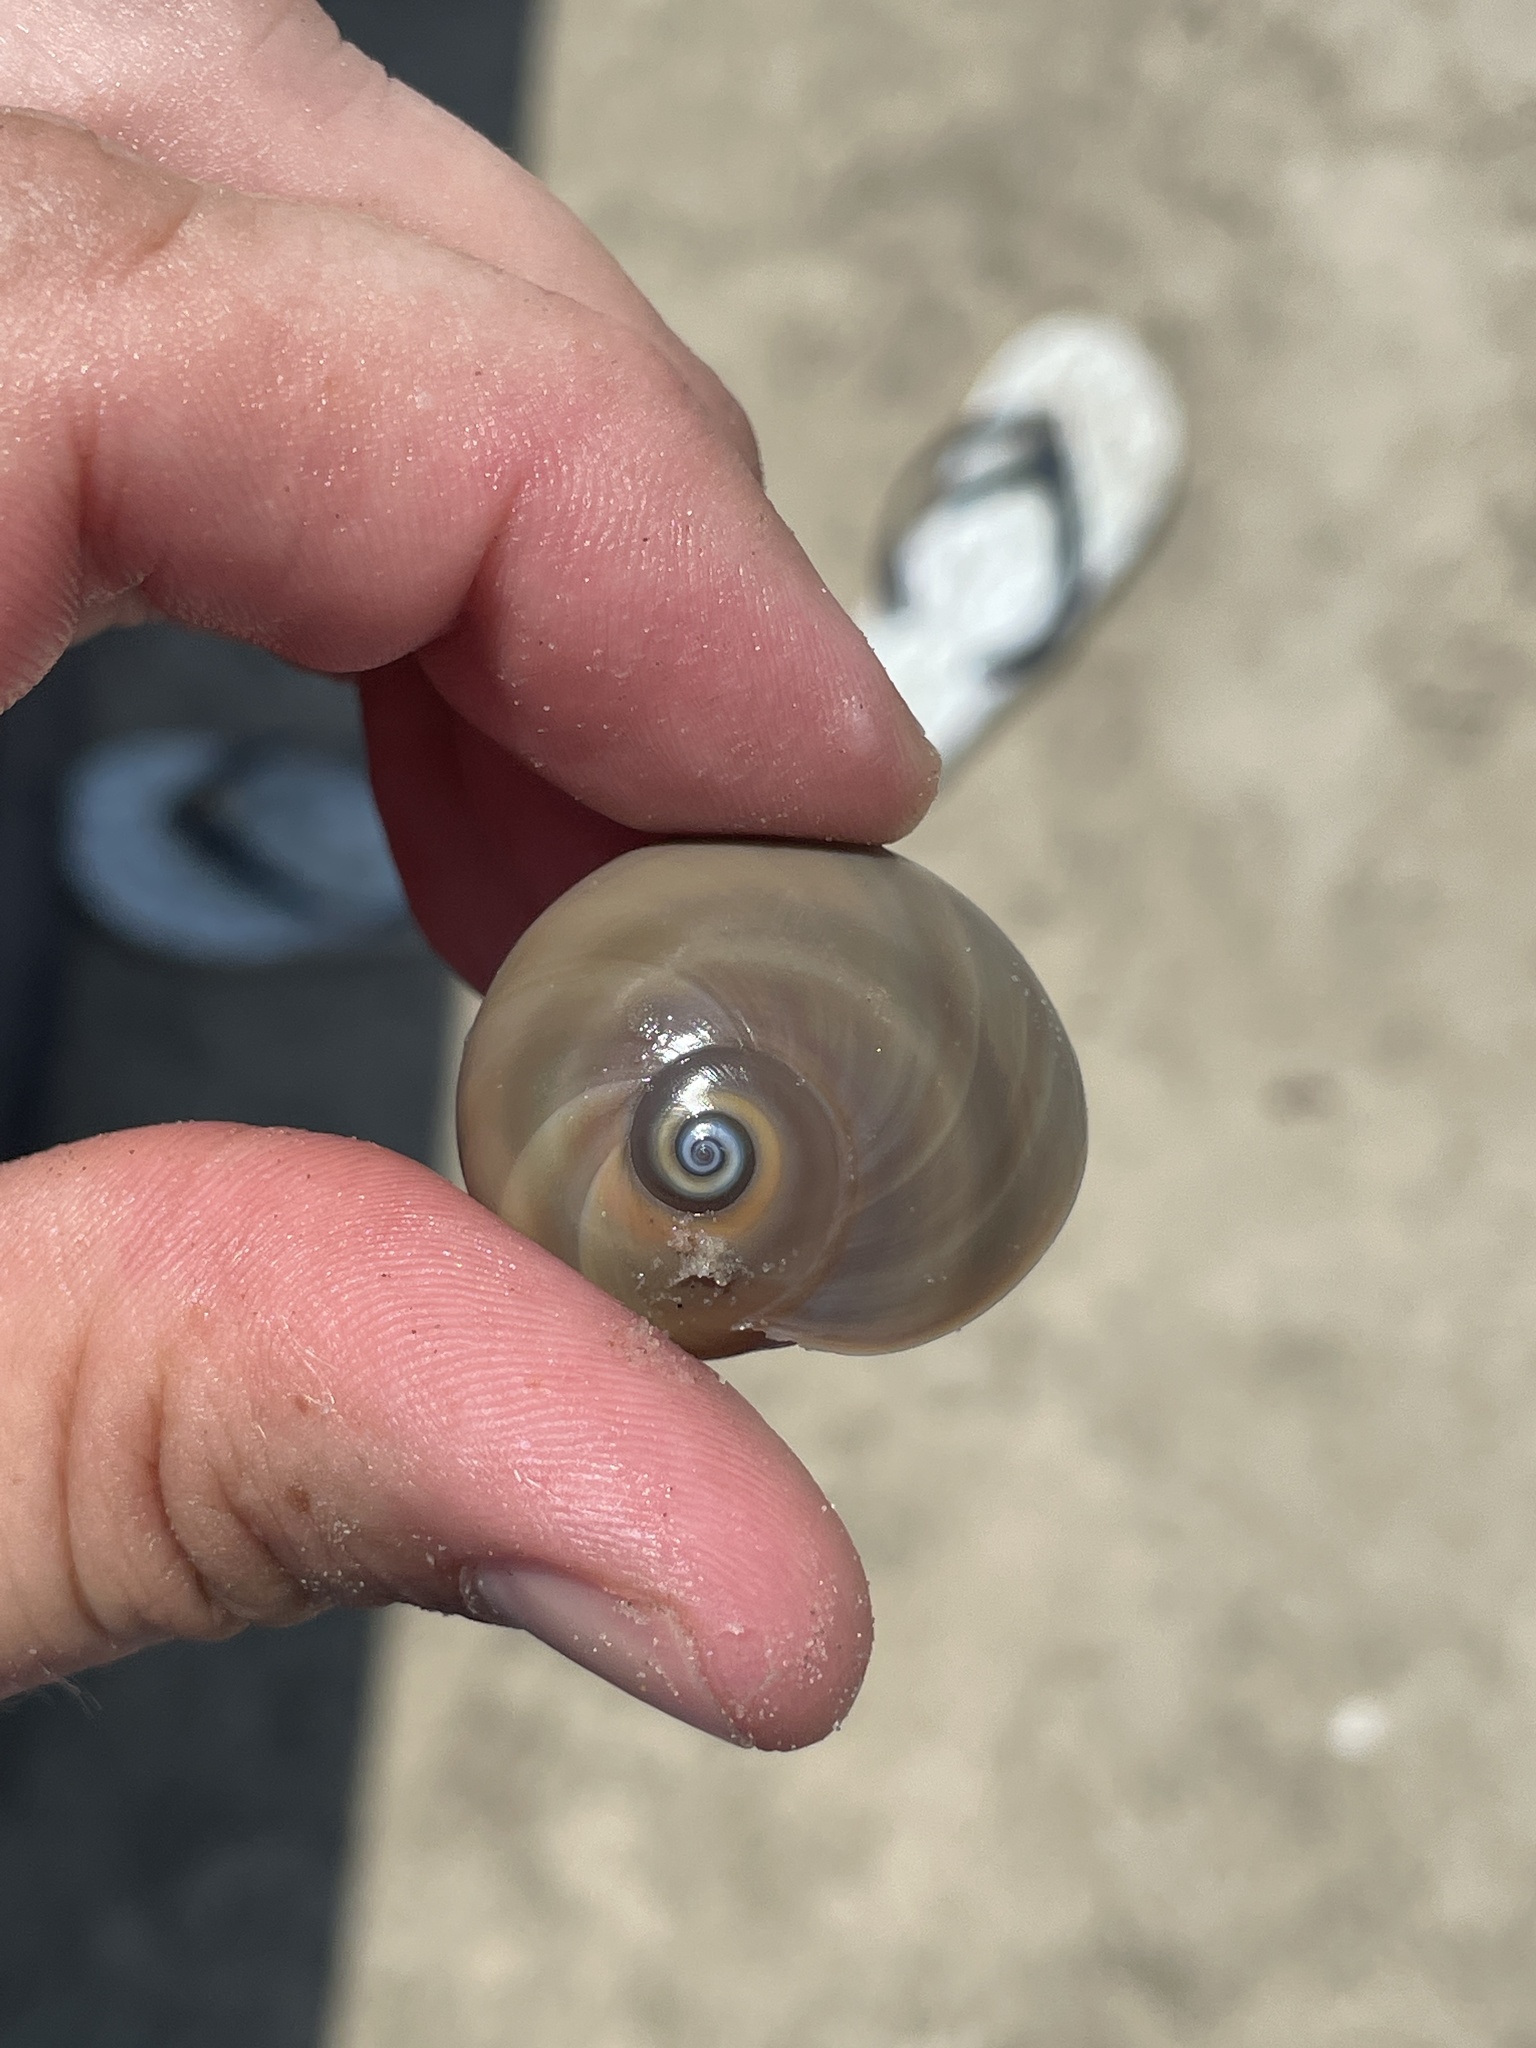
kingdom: Animalia
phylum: Mollusca
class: Gastropoda
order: Littorinimorpha
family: Naticidae
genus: Neverita
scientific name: Neverita duplicata
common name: Lobed moonsnail
